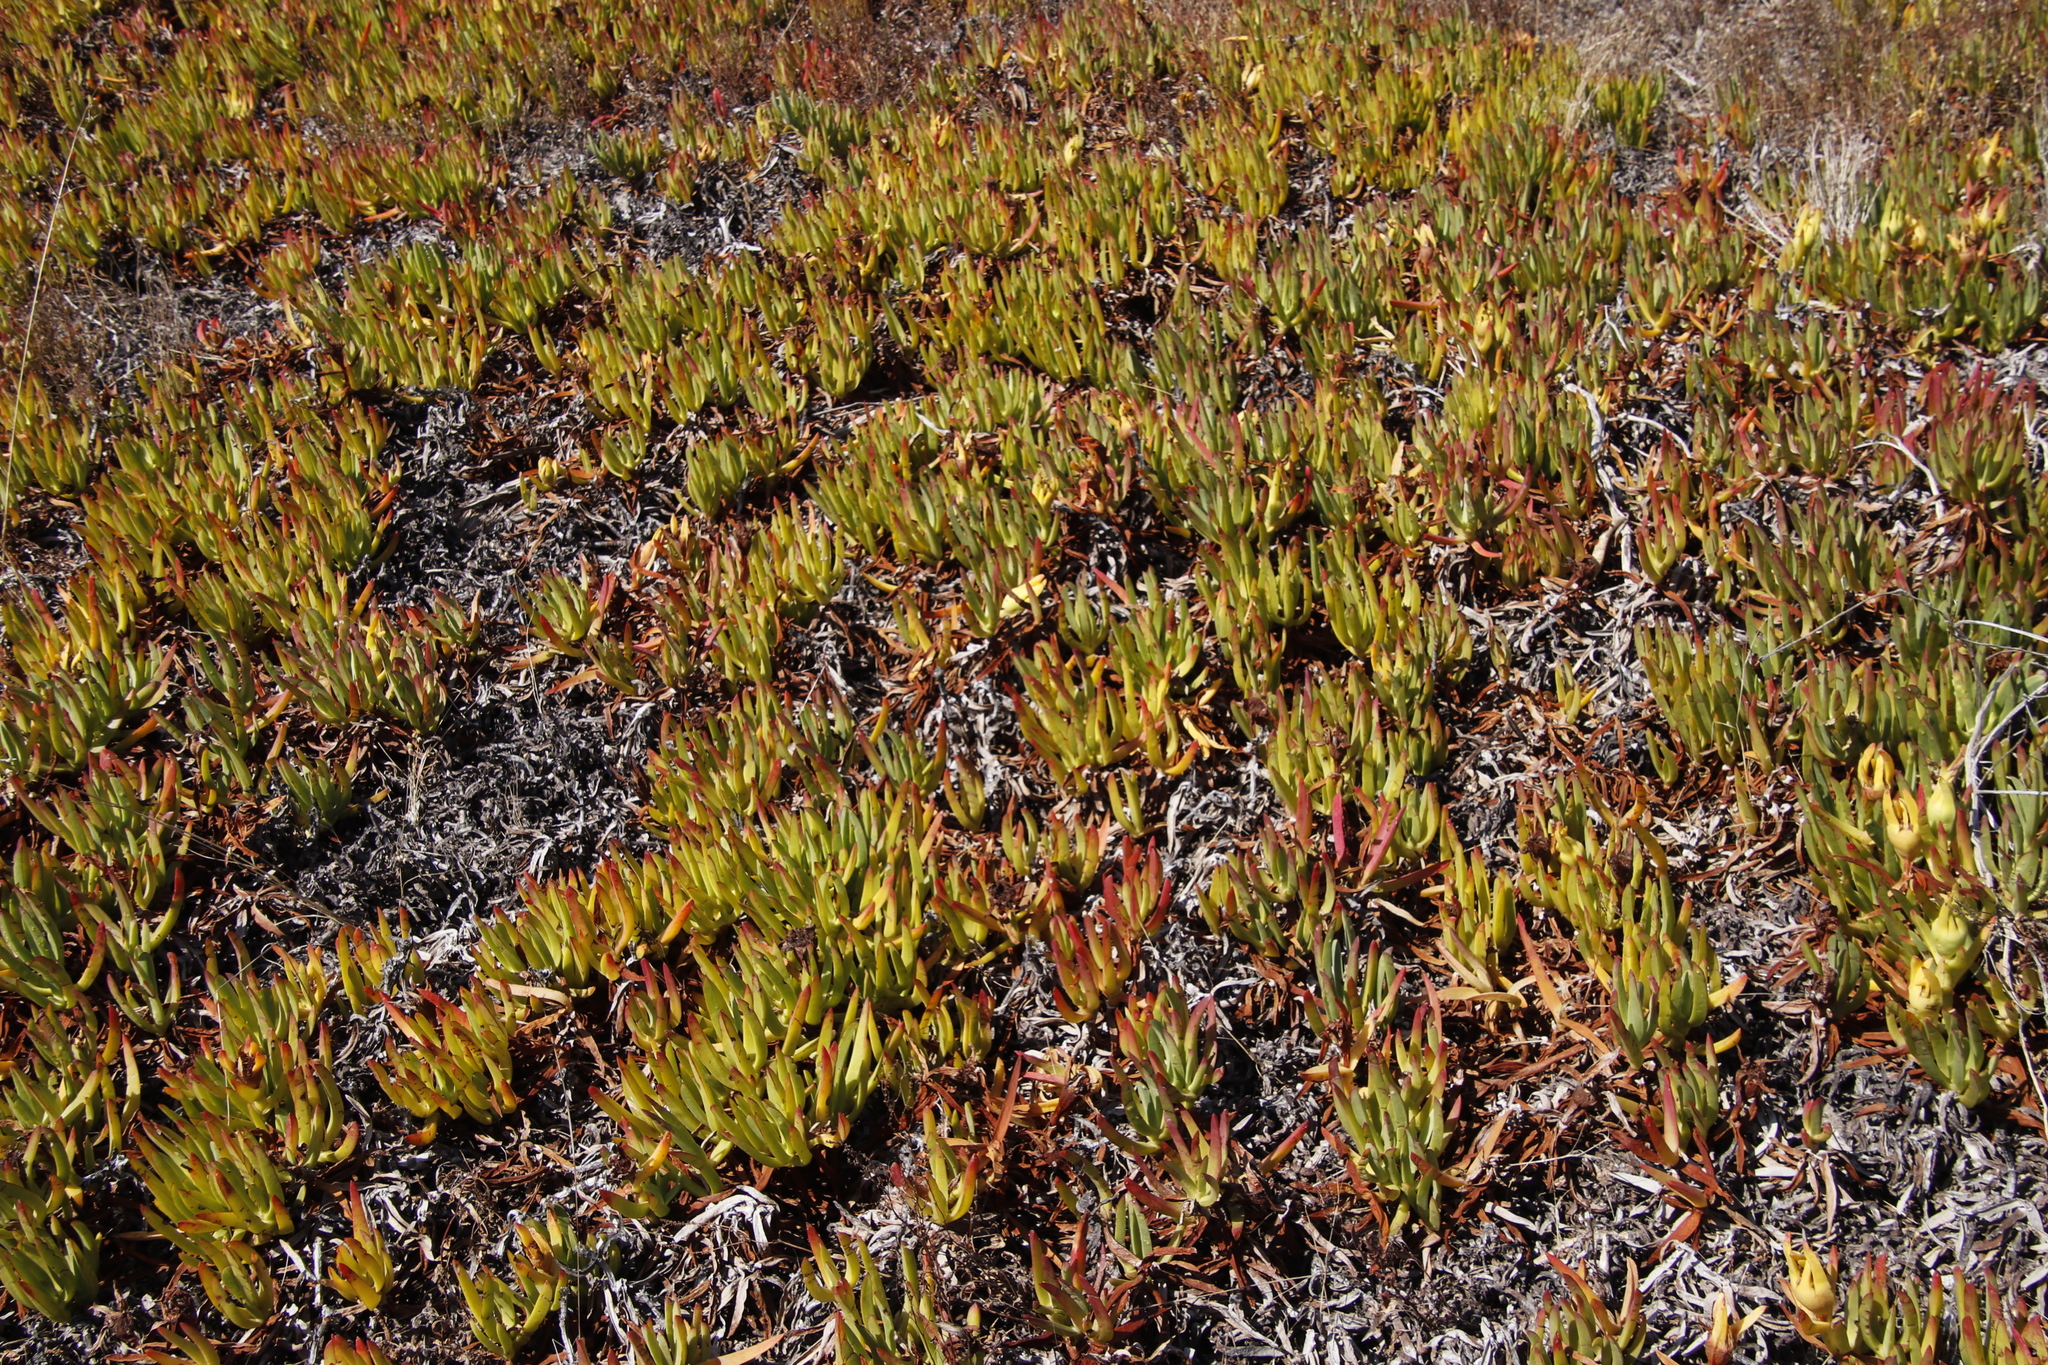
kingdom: Plantae
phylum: Tracheophyta
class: Magnoliopsida
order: Caryophyllales
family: Aizoaceae
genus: Carpobrotus
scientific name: Carpobrotus edulis
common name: Hottentot-fig
